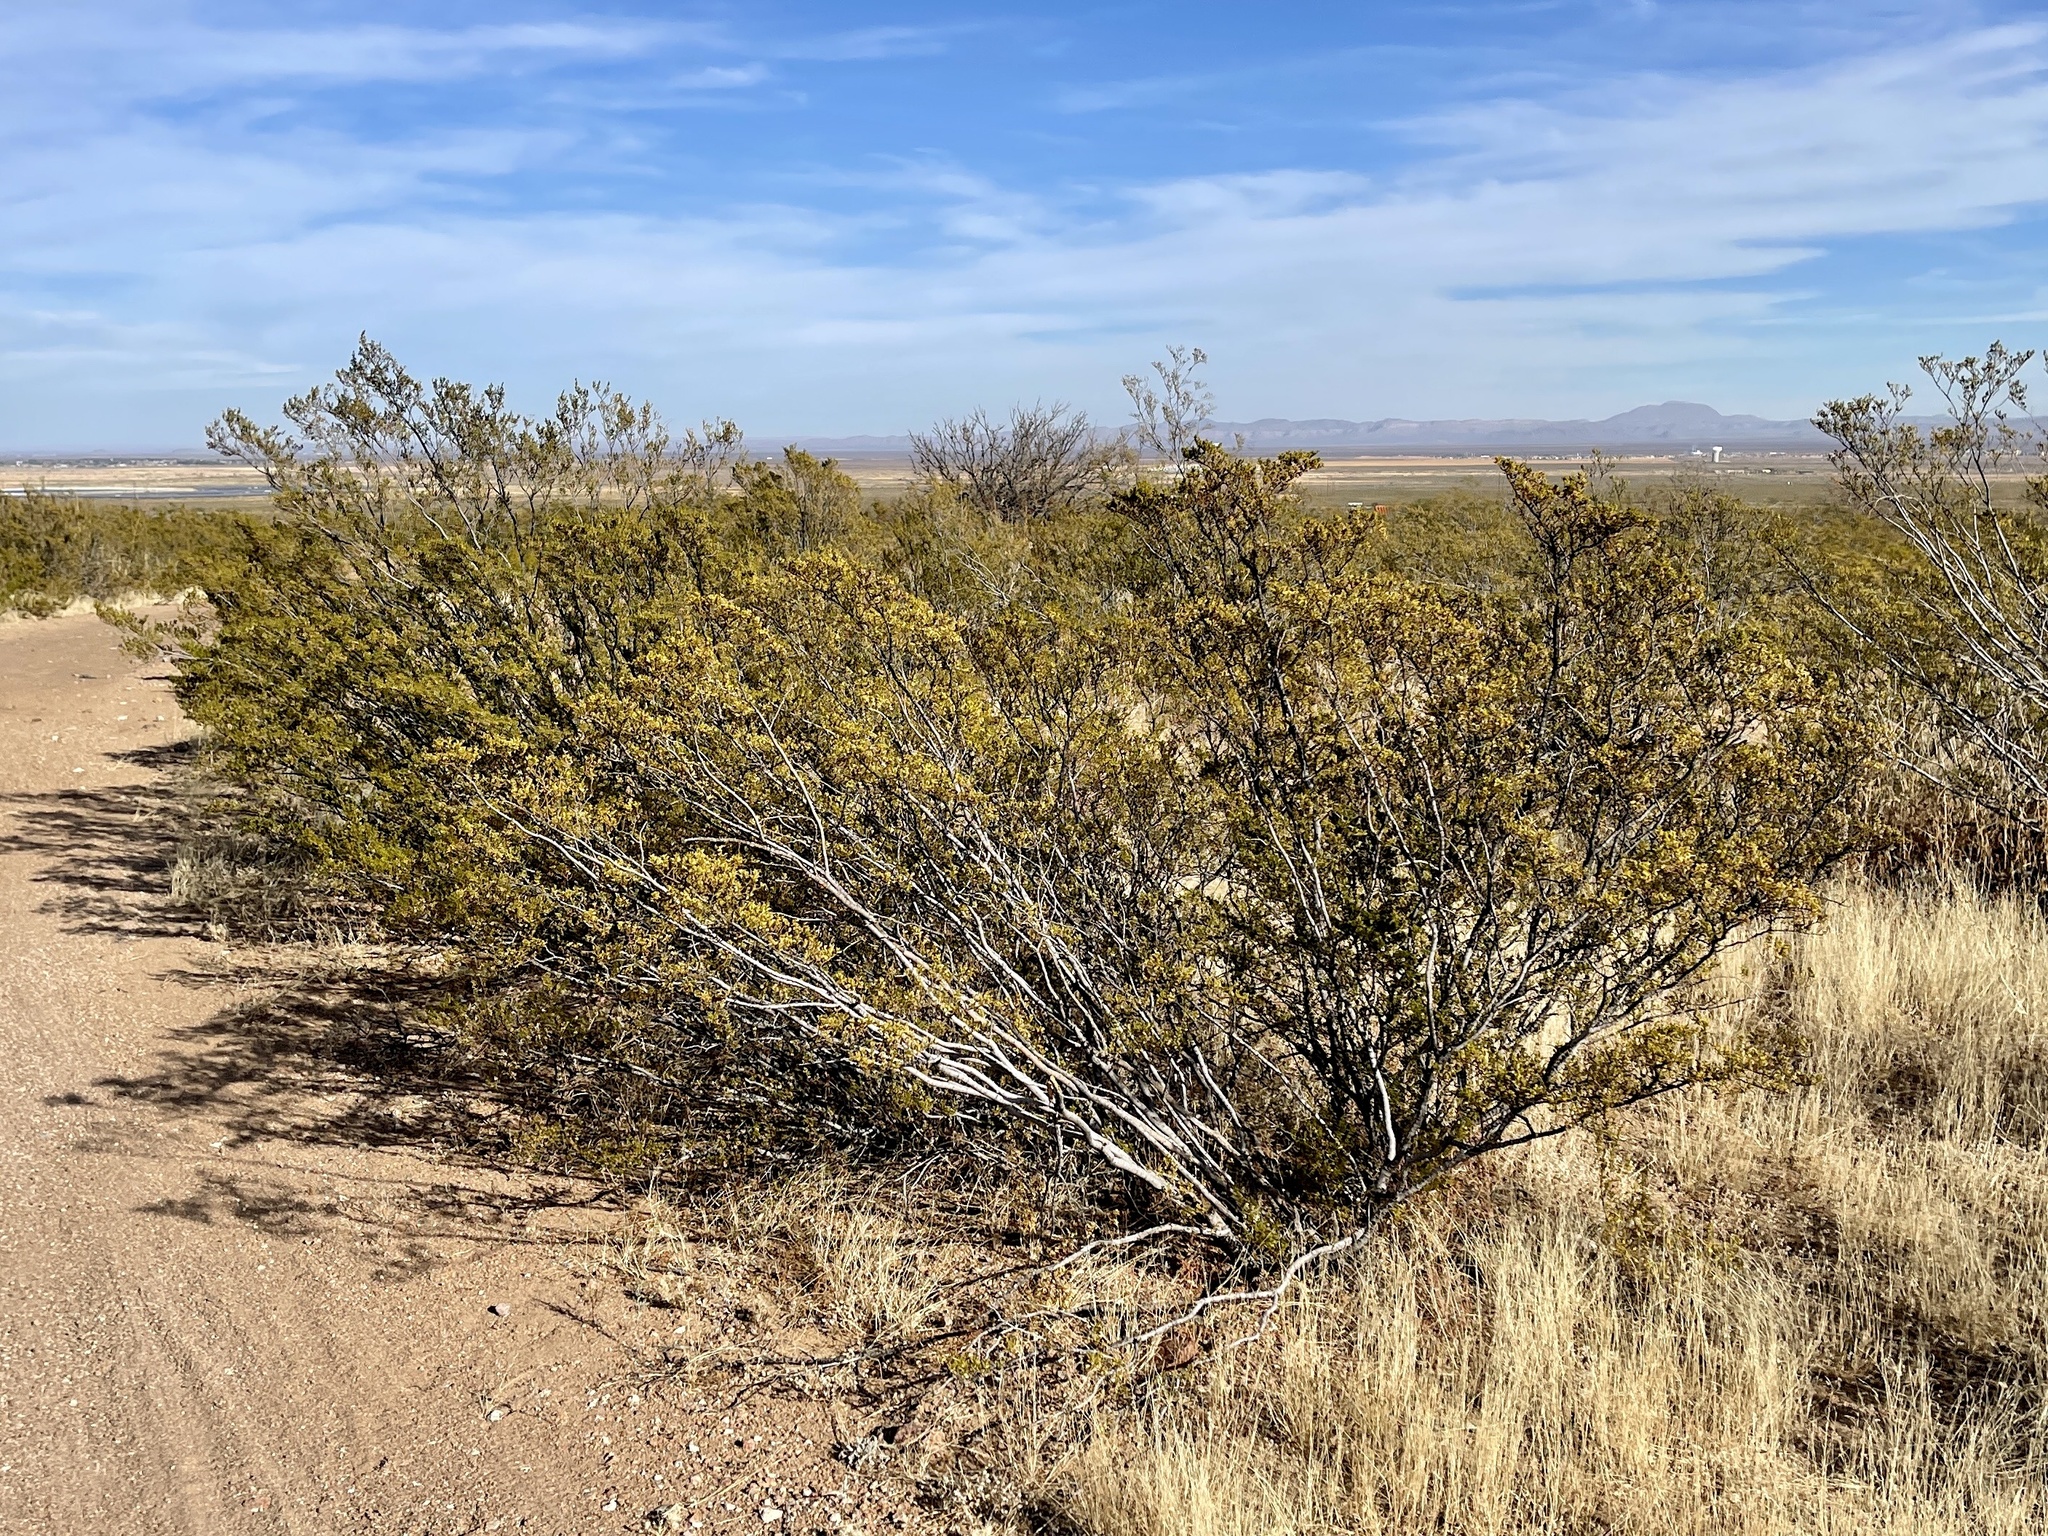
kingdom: Plantae
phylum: Tracheophyta
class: Magnoliopsida
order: Zygophyllales
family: Zygophyllaceae
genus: Larrea
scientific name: Larrea tridentata
